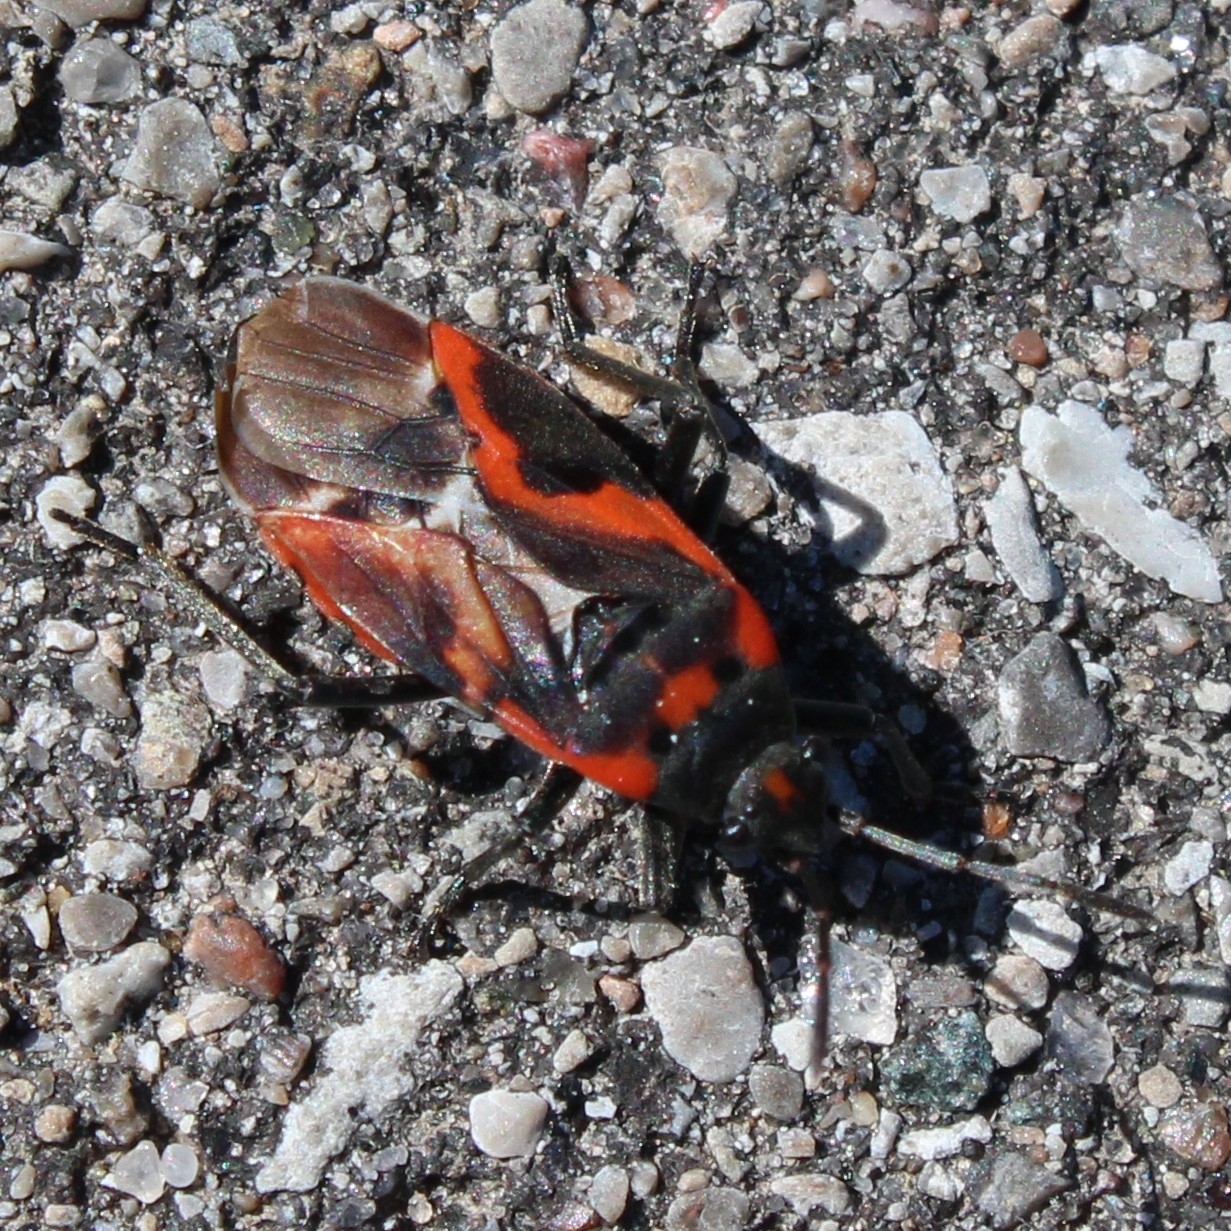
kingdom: Animalia
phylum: Arthropoda
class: Insecta
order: Hemiptera
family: Lygaeidae
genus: Lygaeus
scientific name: Lygaeus kalmii
